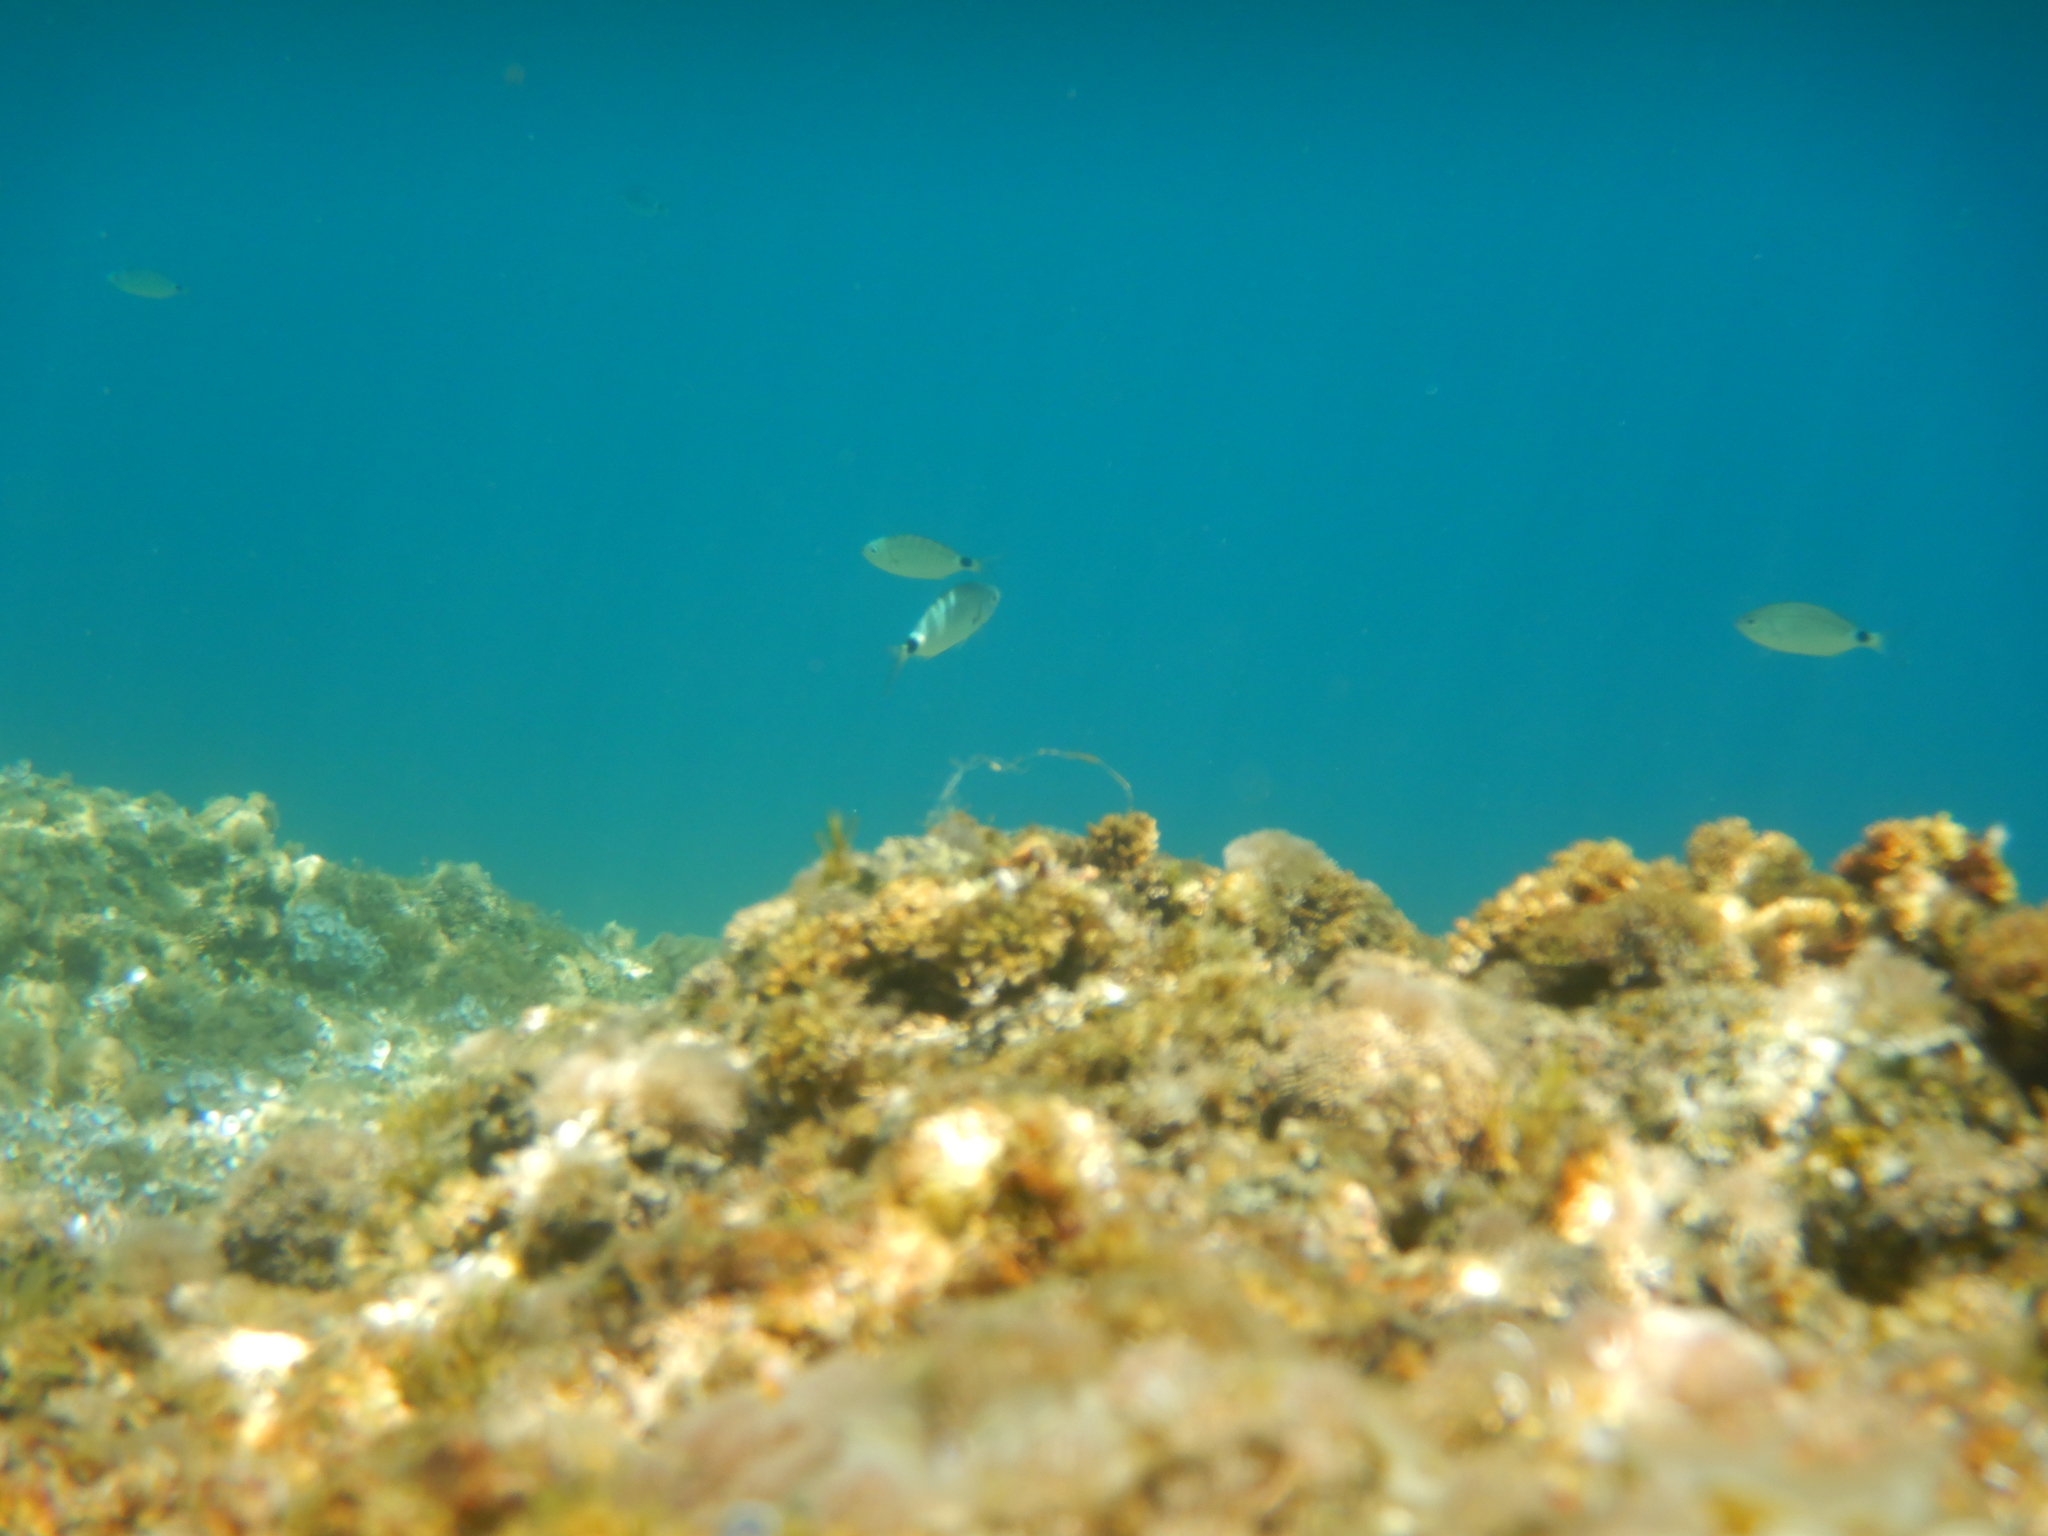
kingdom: Animalia
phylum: Chordata
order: Perciformes
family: Sparidae
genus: Oblada
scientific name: Oblada melanura
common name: Saddled seabream
